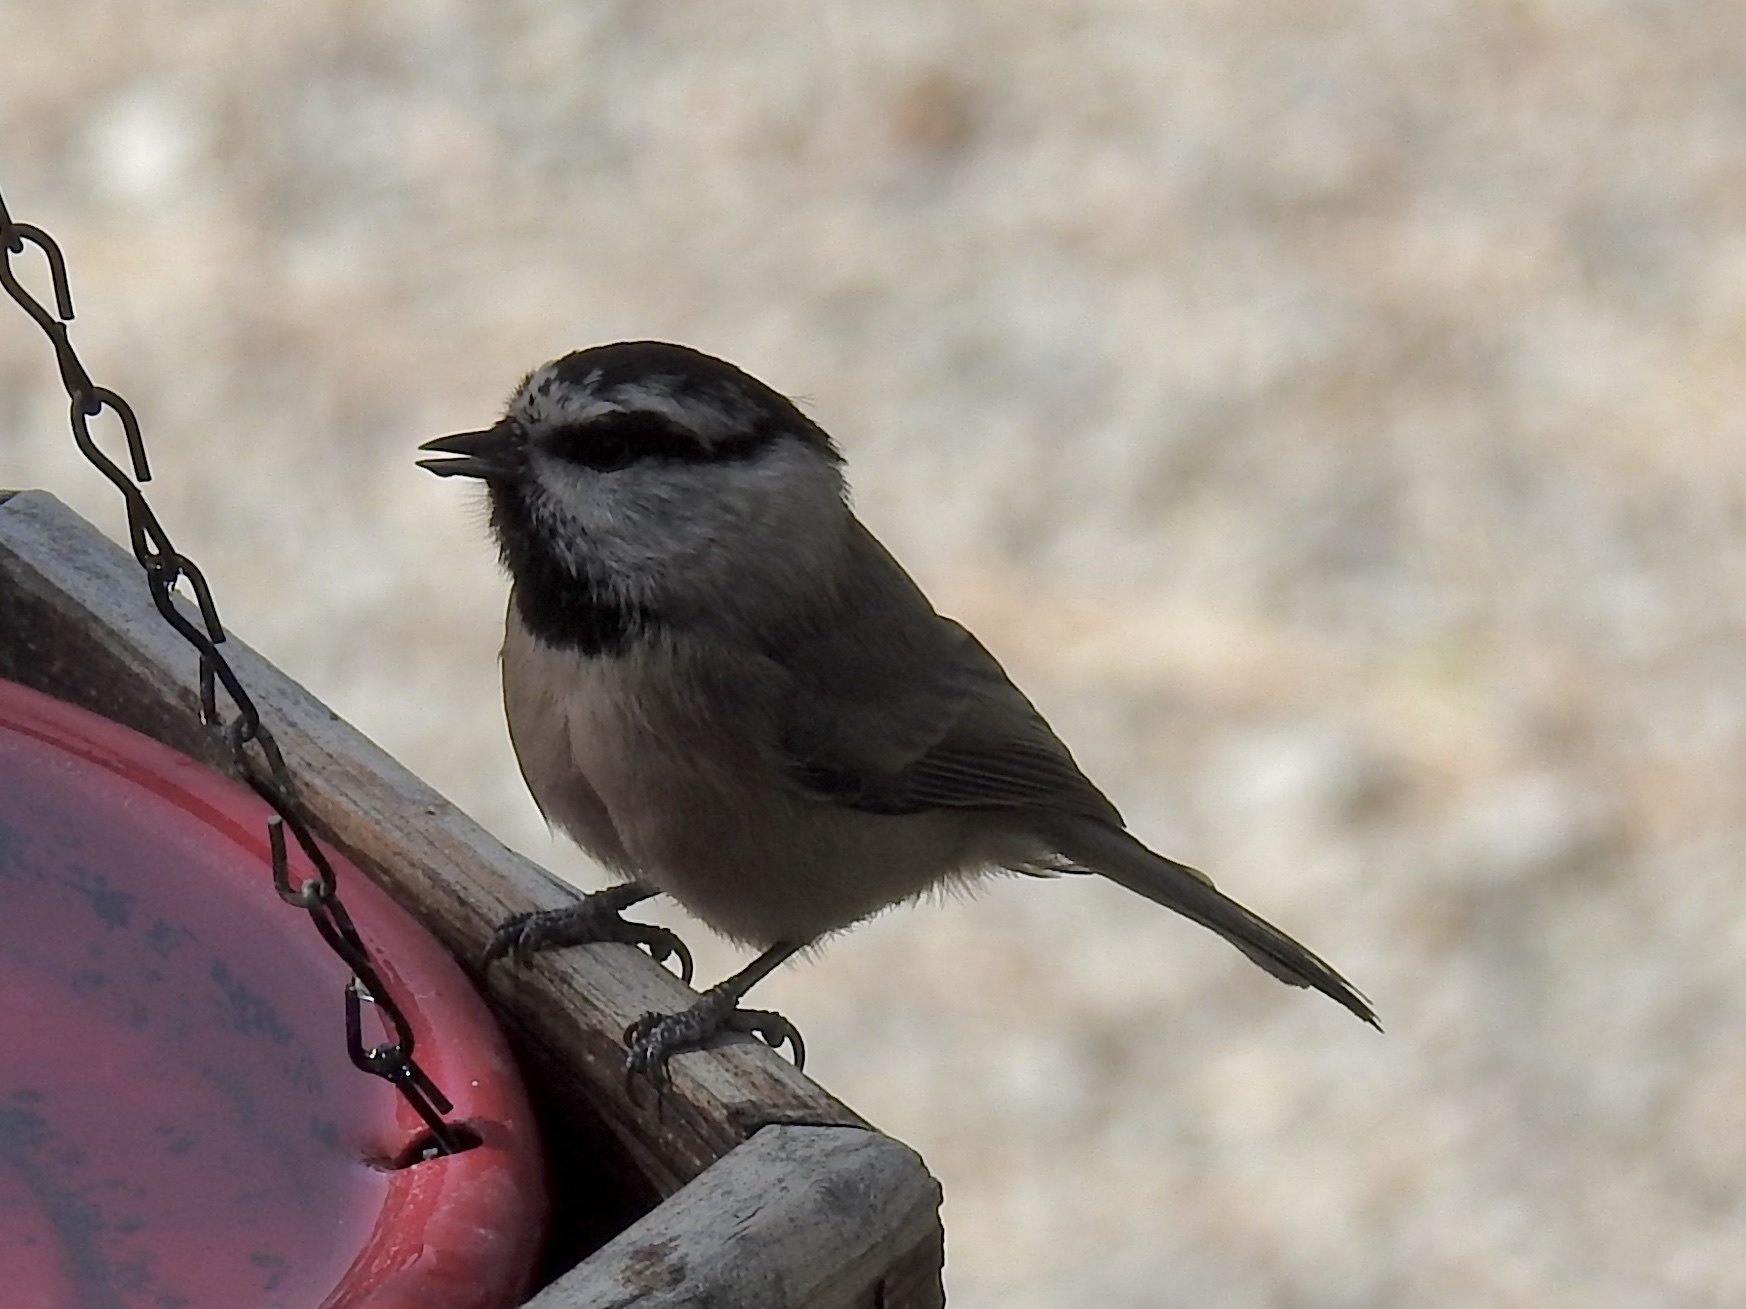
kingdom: Animalia
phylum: Chordata
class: Aves
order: Passeriformes
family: Paridae
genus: Poecile
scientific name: Poecile gambeli
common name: Mountain chickadee
